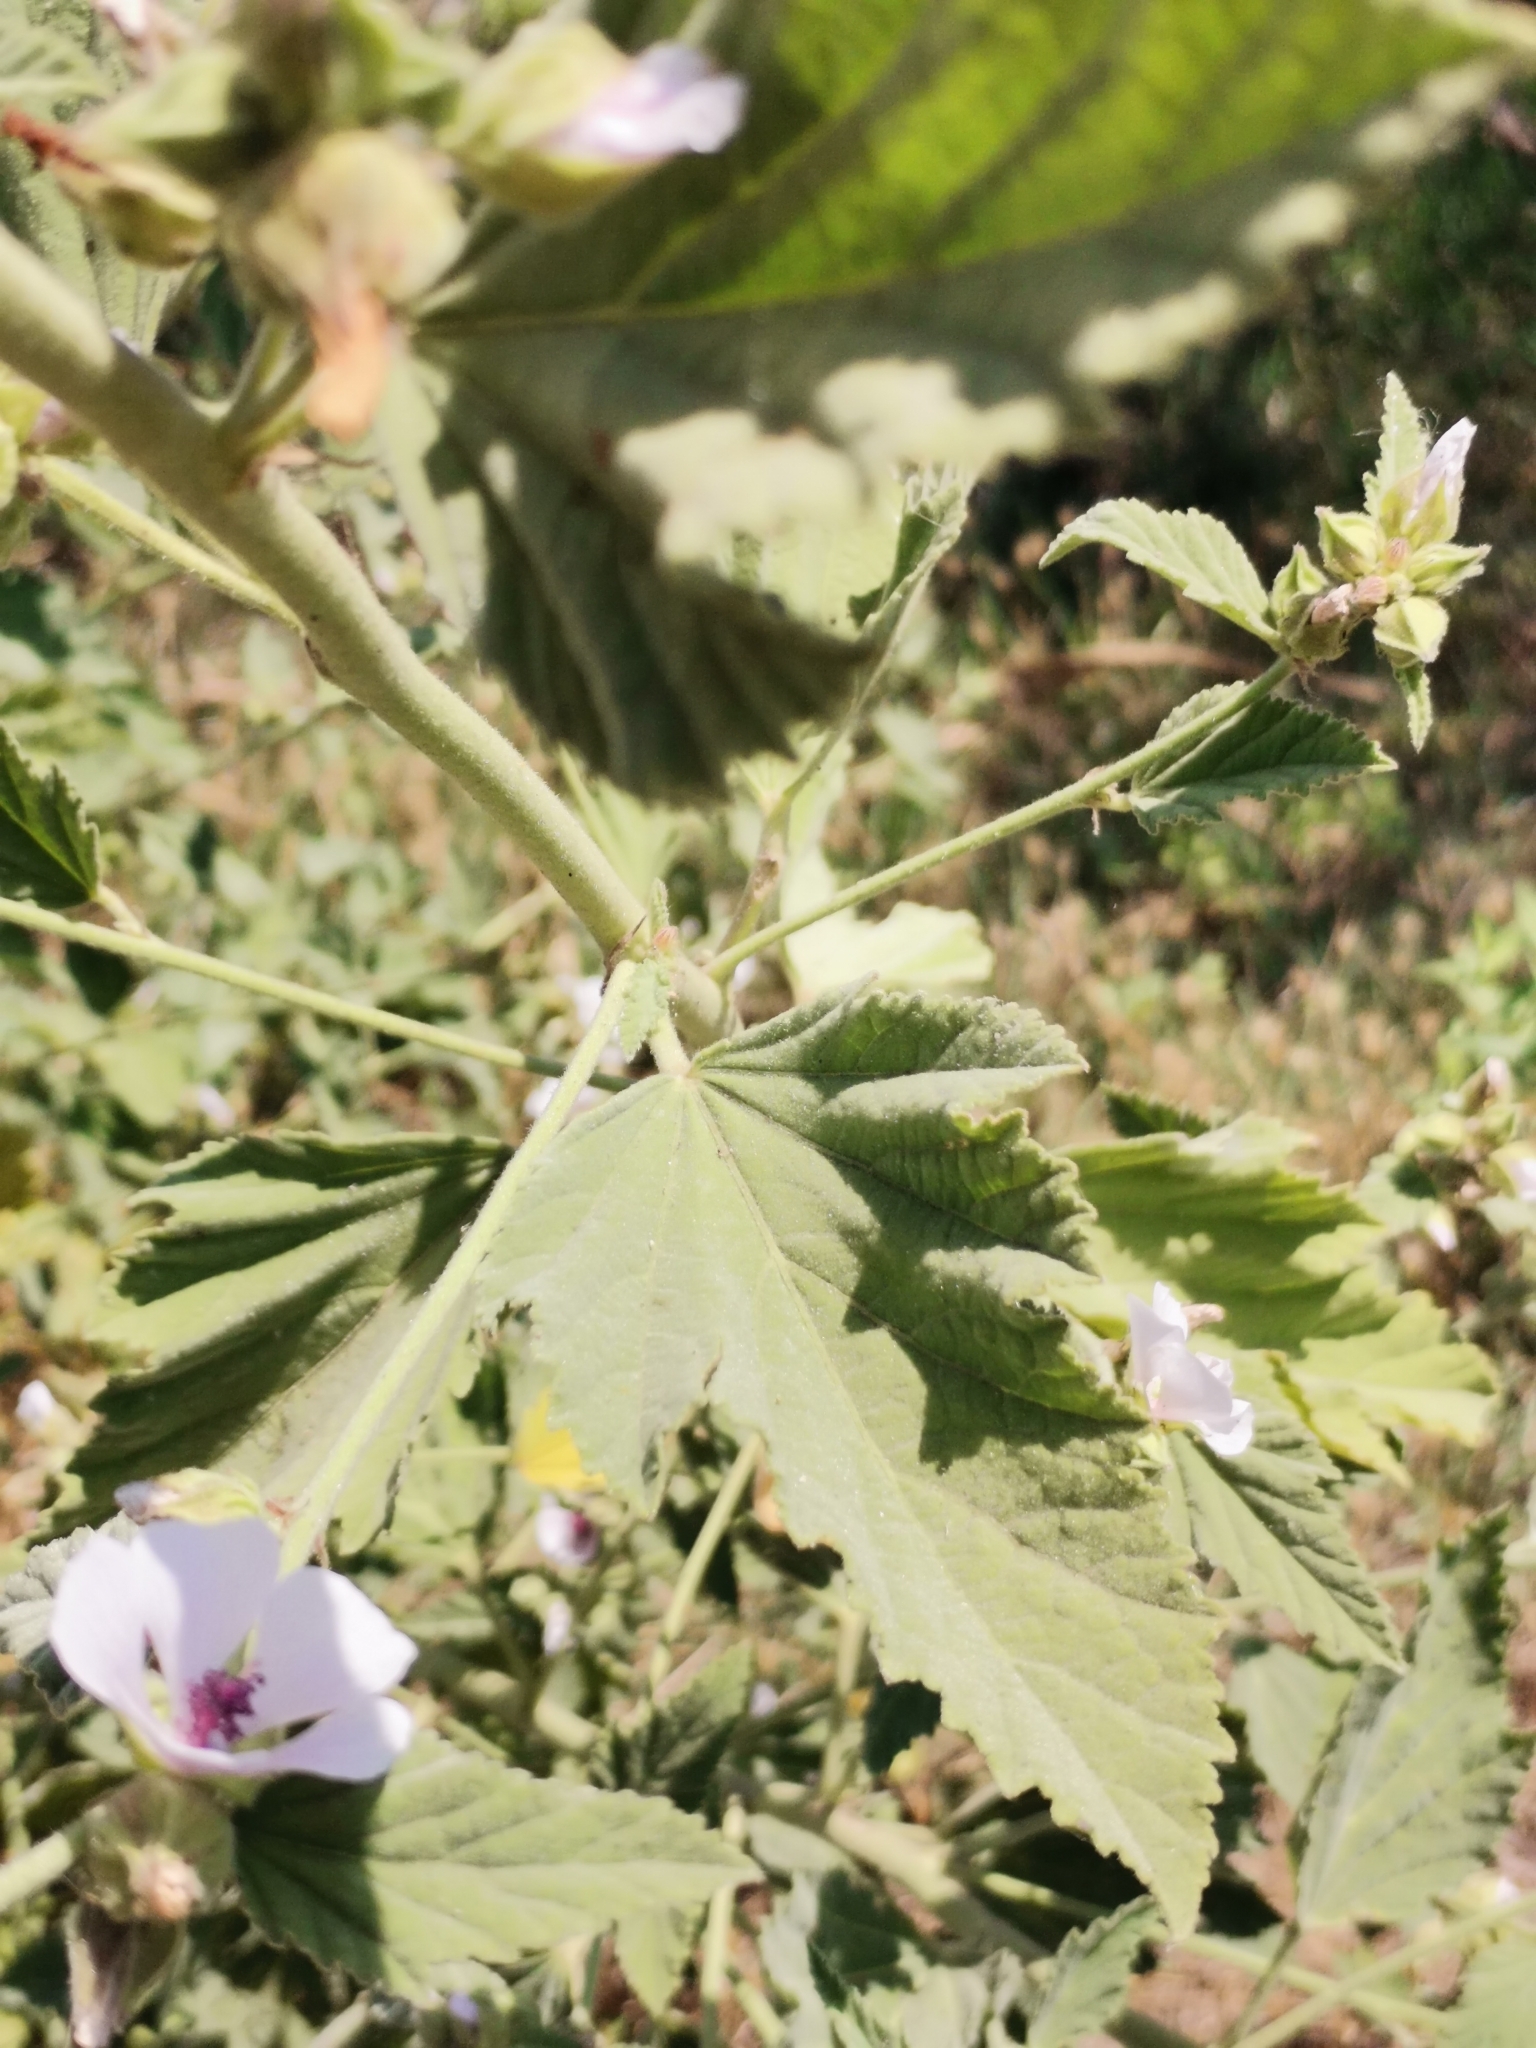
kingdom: Plantae
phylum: Tracheophyta
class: Magnoliopsida
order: Malvales
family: Malvaceae
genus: Althaea
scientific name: Althaea officinalis
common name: Marsh-mallow
